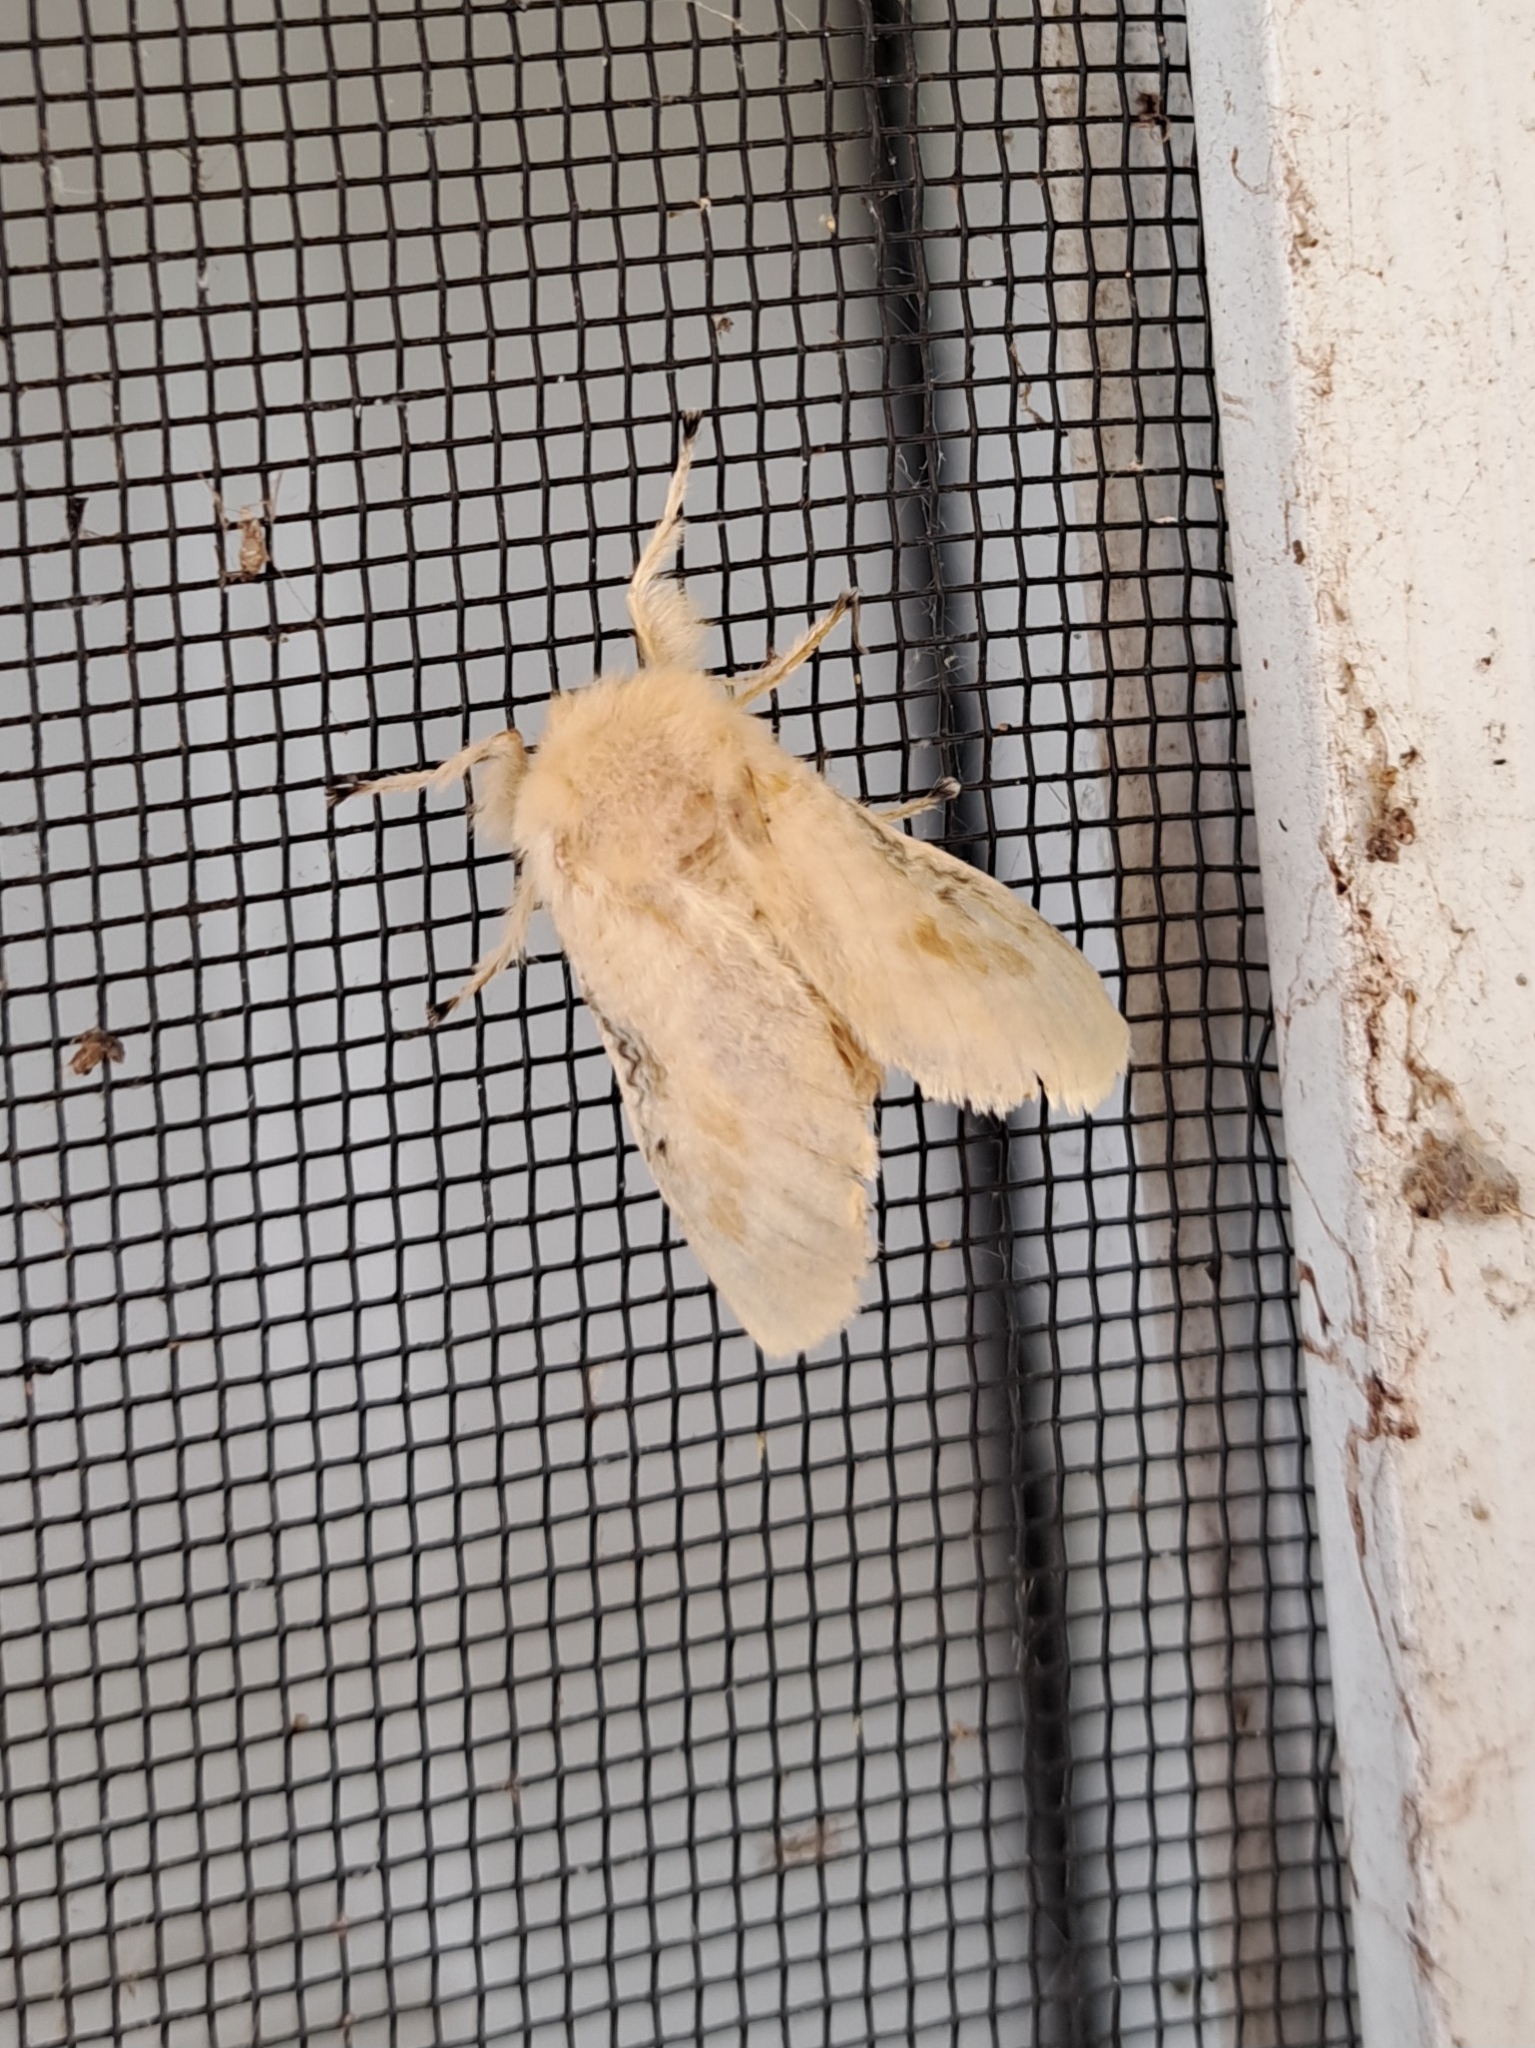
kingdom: Animalia
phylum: Arthropoda
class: Insecta
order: Lepidoptera
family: Megalopygidae
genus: Megalopyge
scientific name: Megalopyge crispata
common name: Black-waved flannel moth
